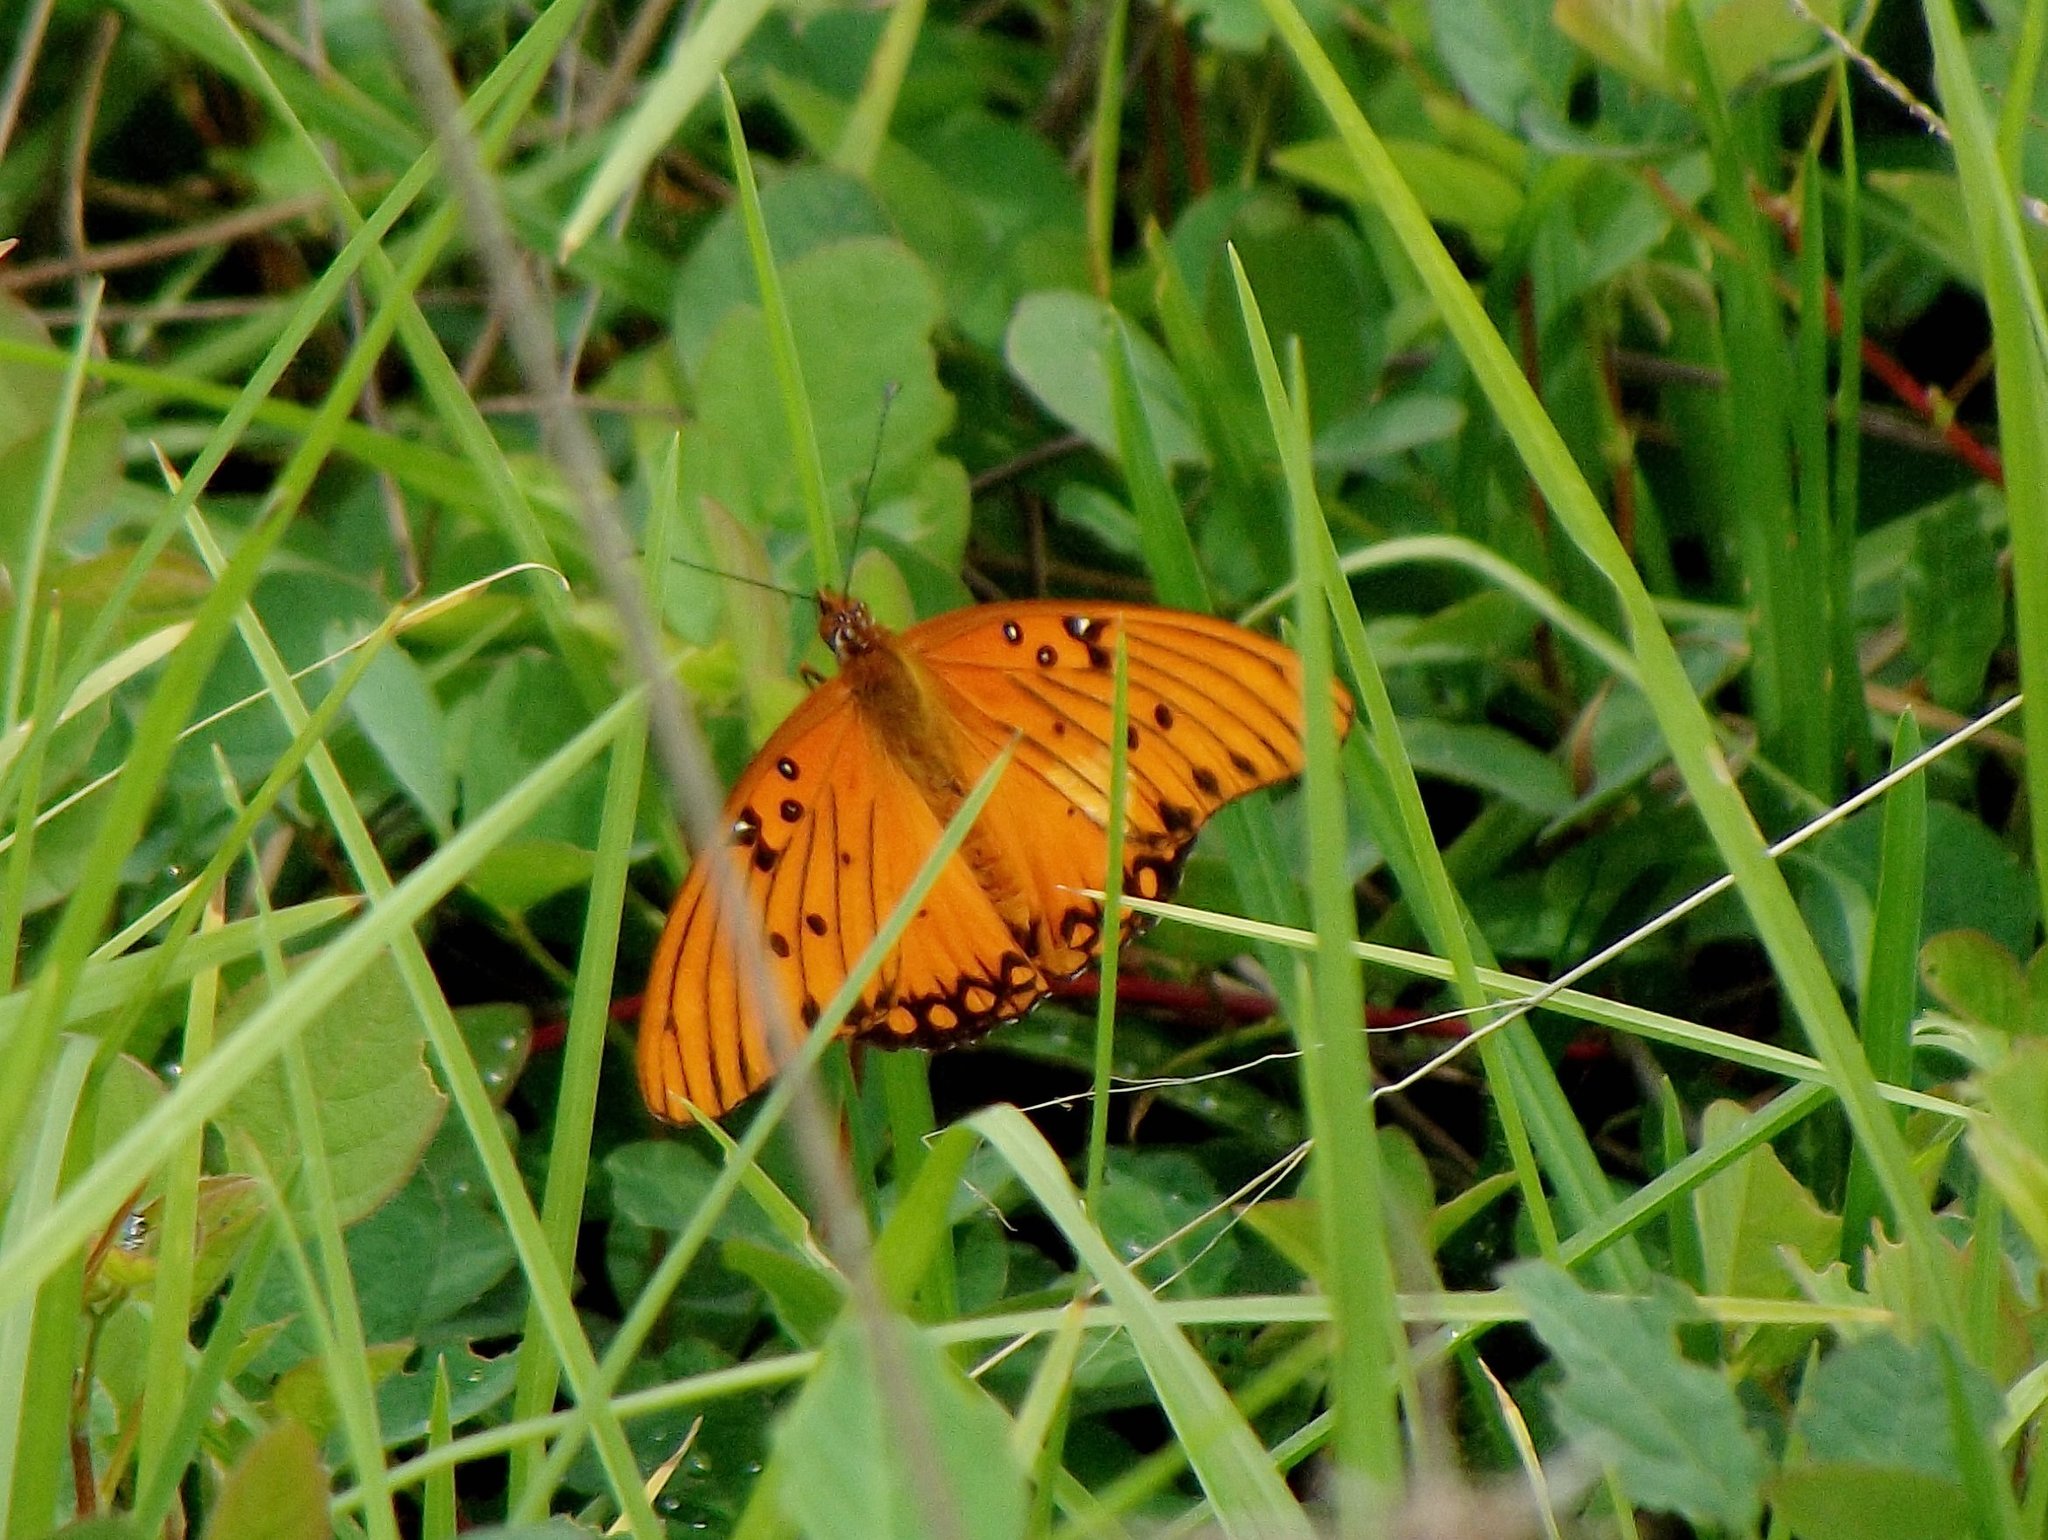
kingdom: Animalia
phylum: Arthropoda
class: Insecta
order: Lepidoptera
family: Nymphalidae
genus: Dione
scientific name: Dione vanillae
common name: Gulf fritillary
